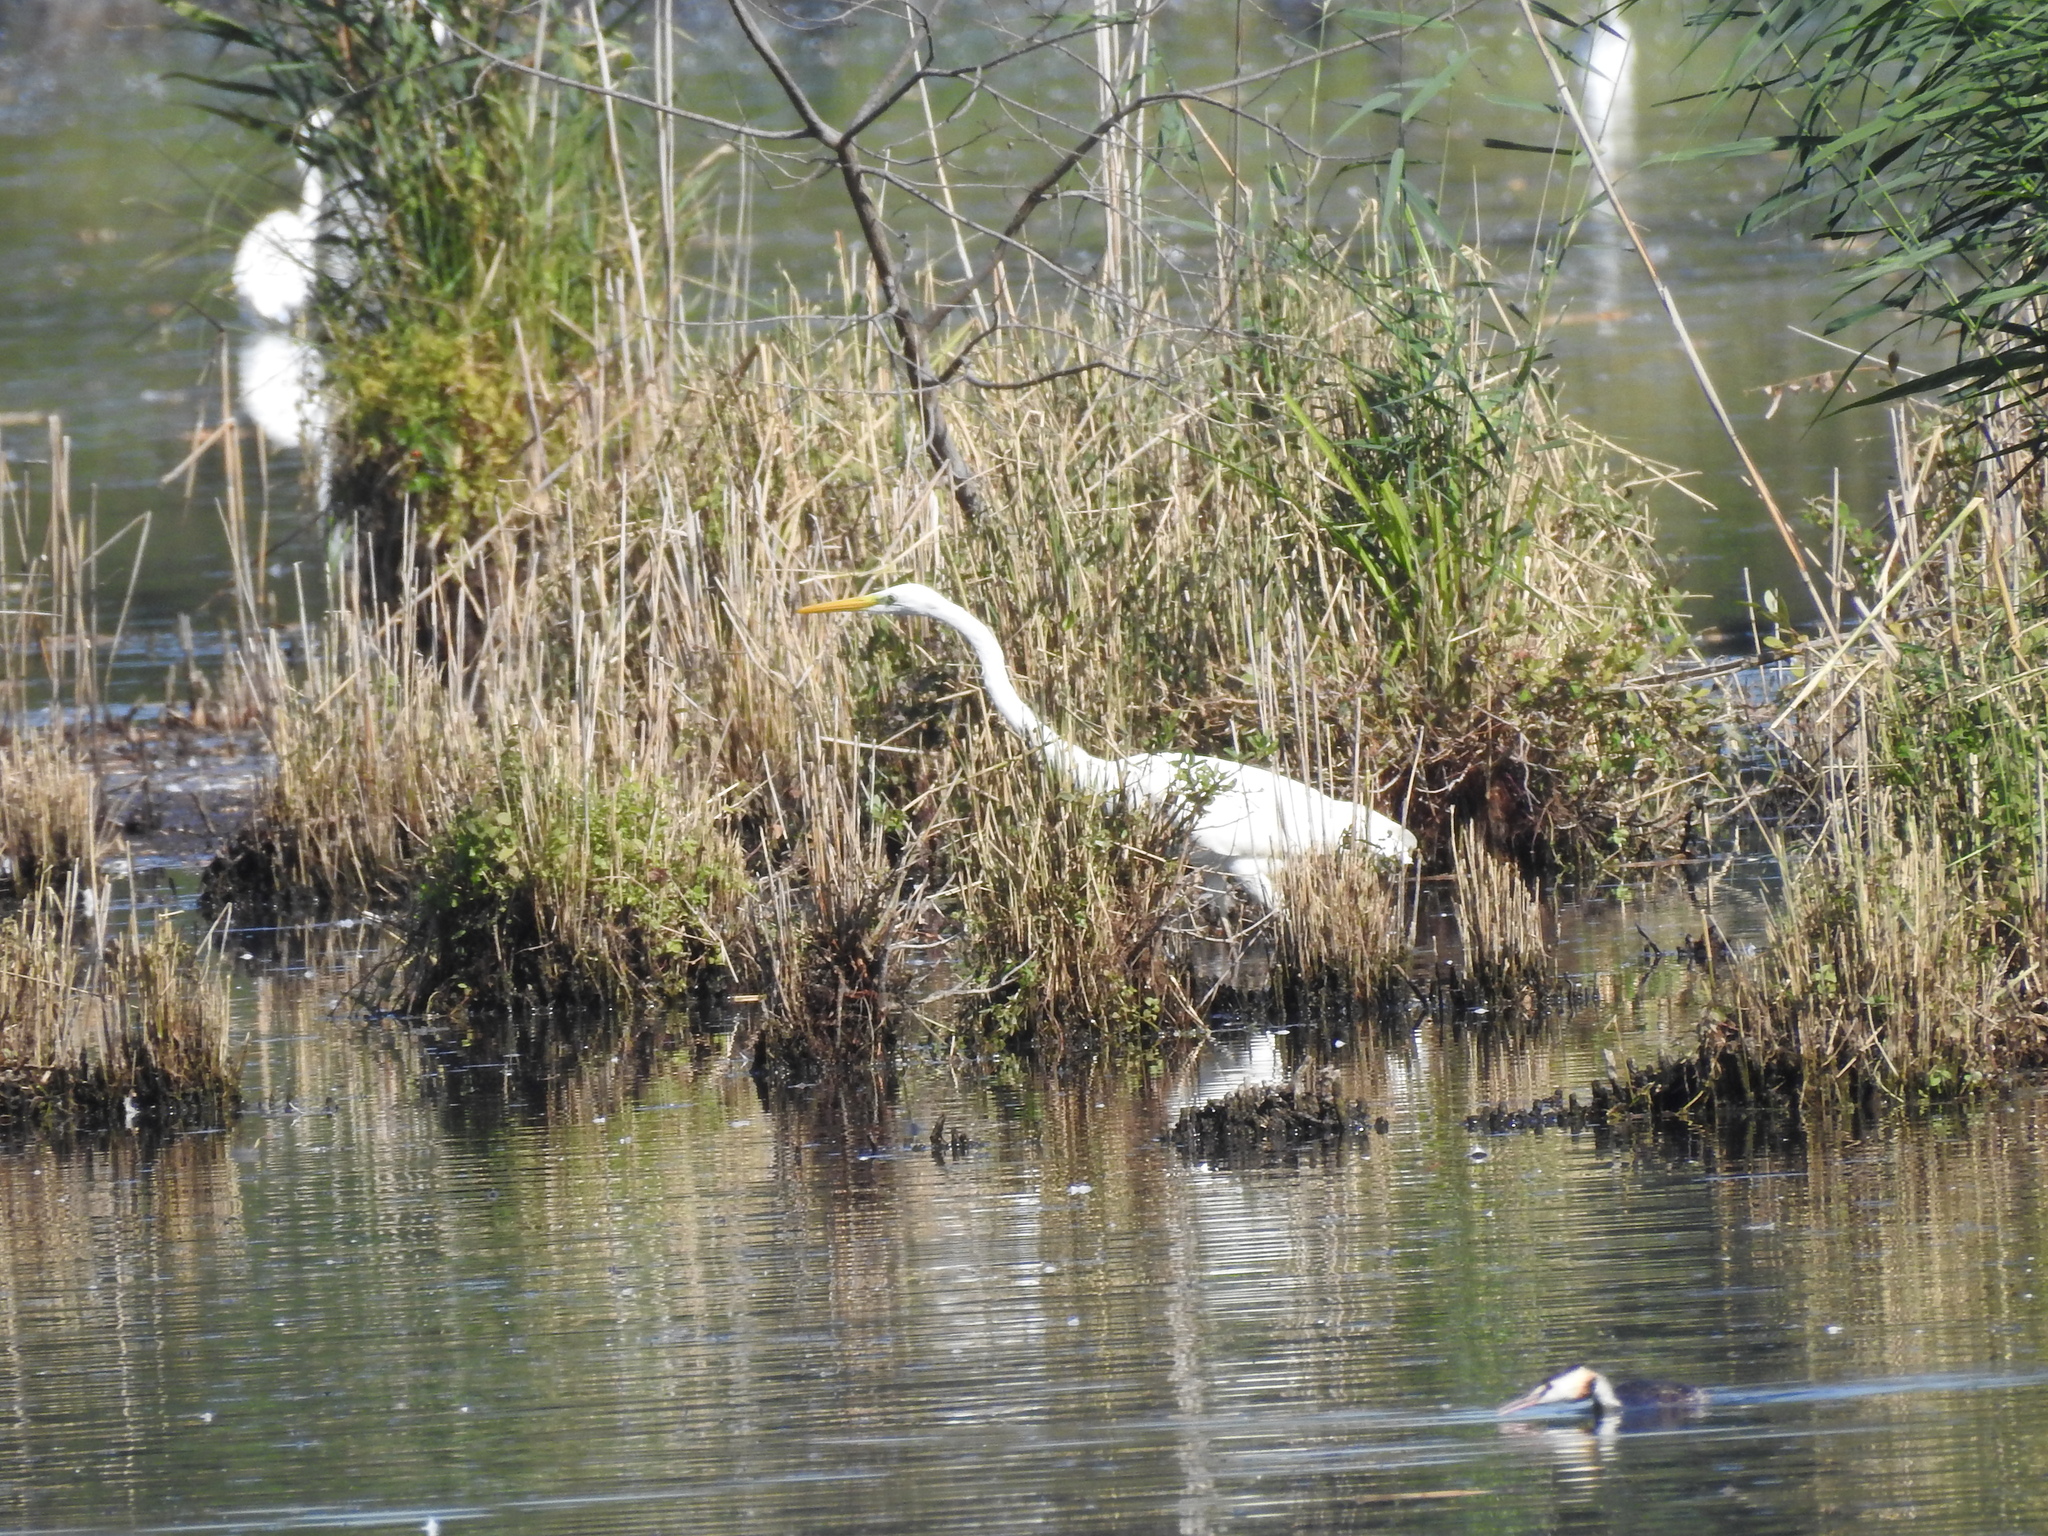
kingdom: Animalia
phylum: Chordata
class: Aves
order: Pelecaniformes
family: Ardeidae
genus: Ardea
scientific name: Ardea alba
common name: Great egret
